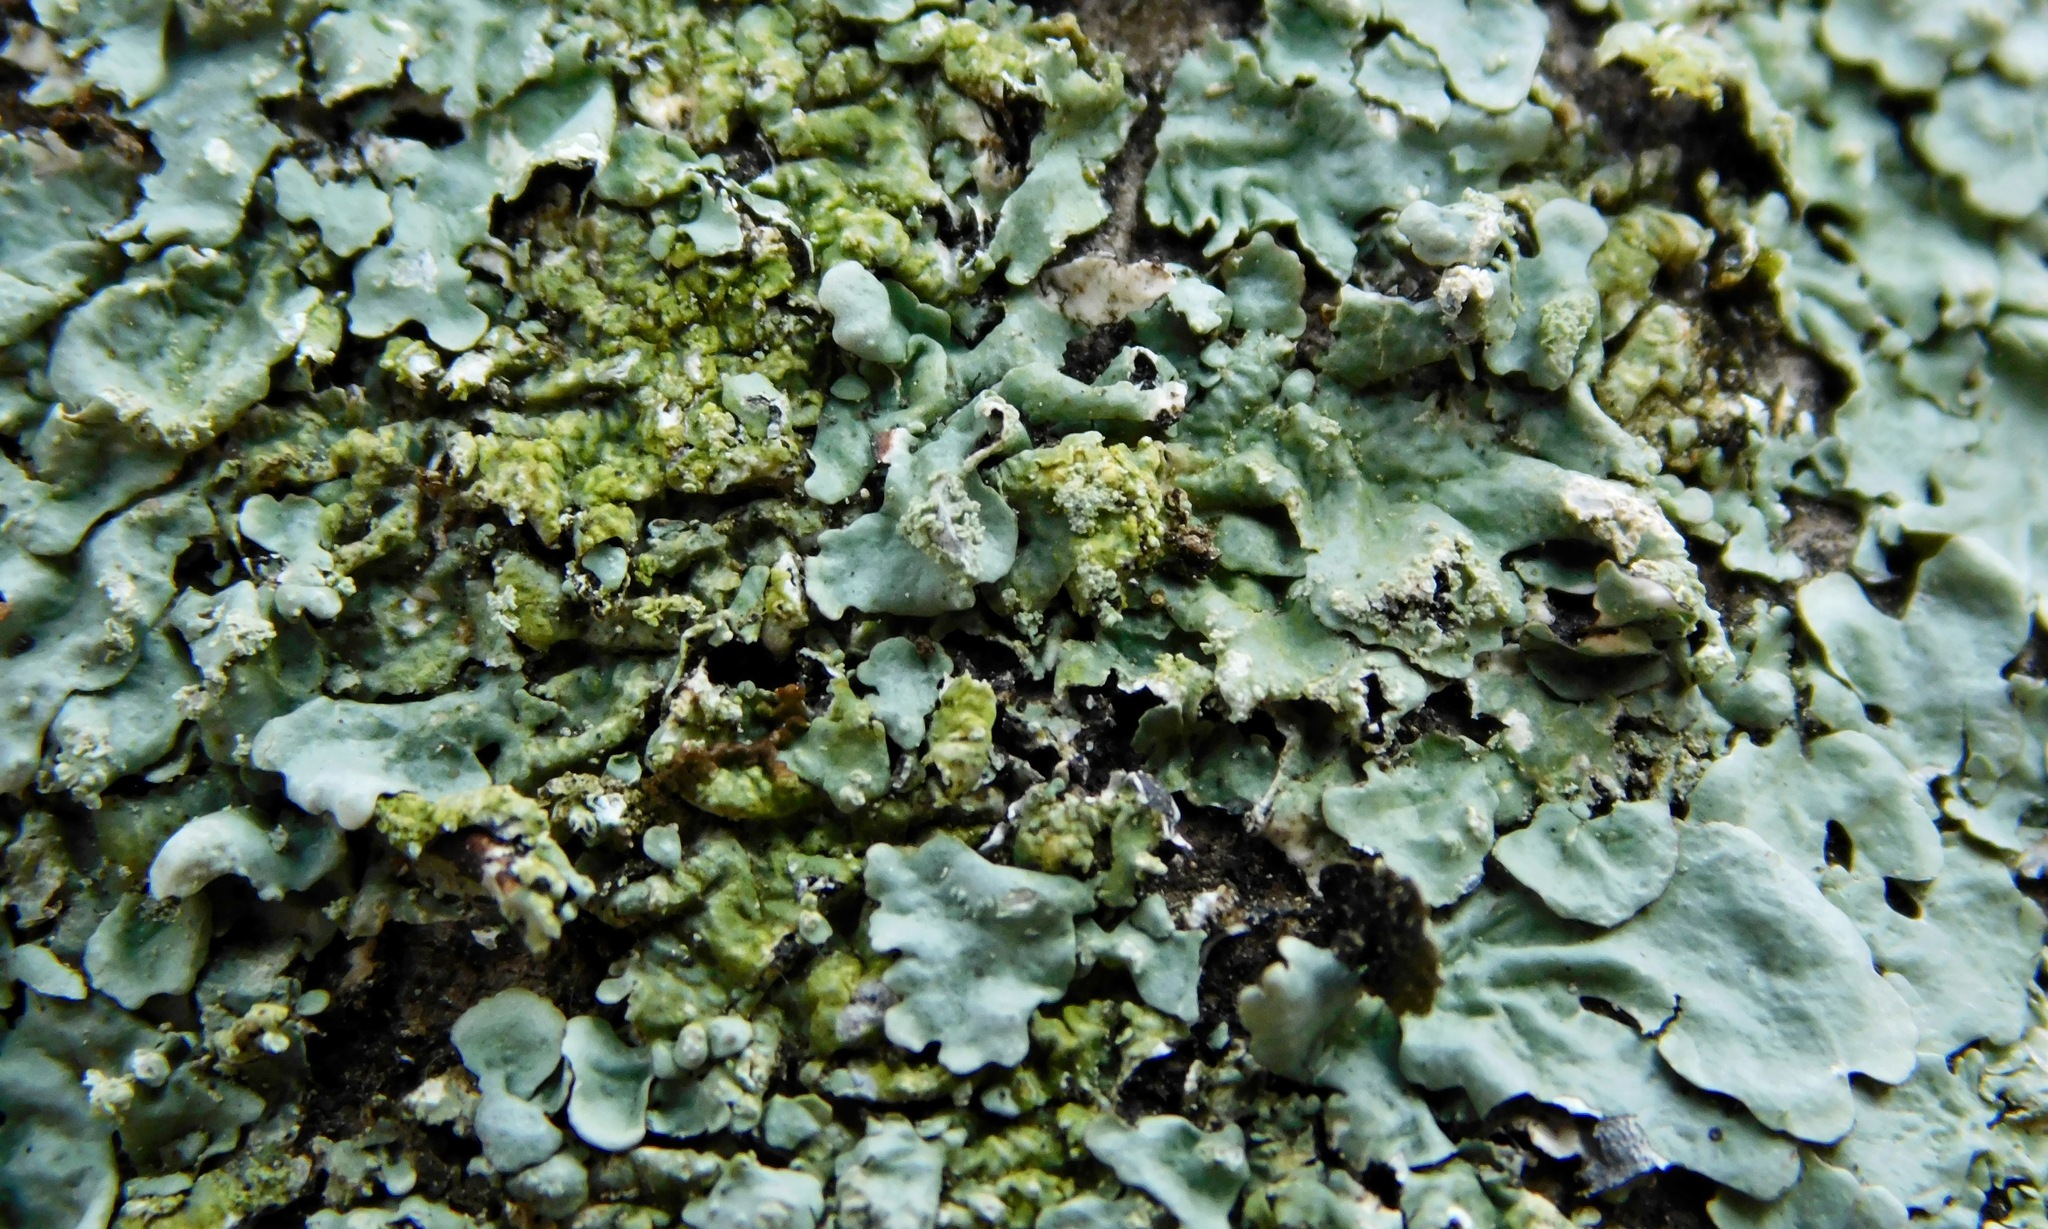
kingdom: Fungi
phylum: Ascomycota
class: Lecanoromycetes
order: Lecanorales
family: Parmeliaceae
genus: Hypotrachyna
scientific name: Hypotrachyna spumosa
